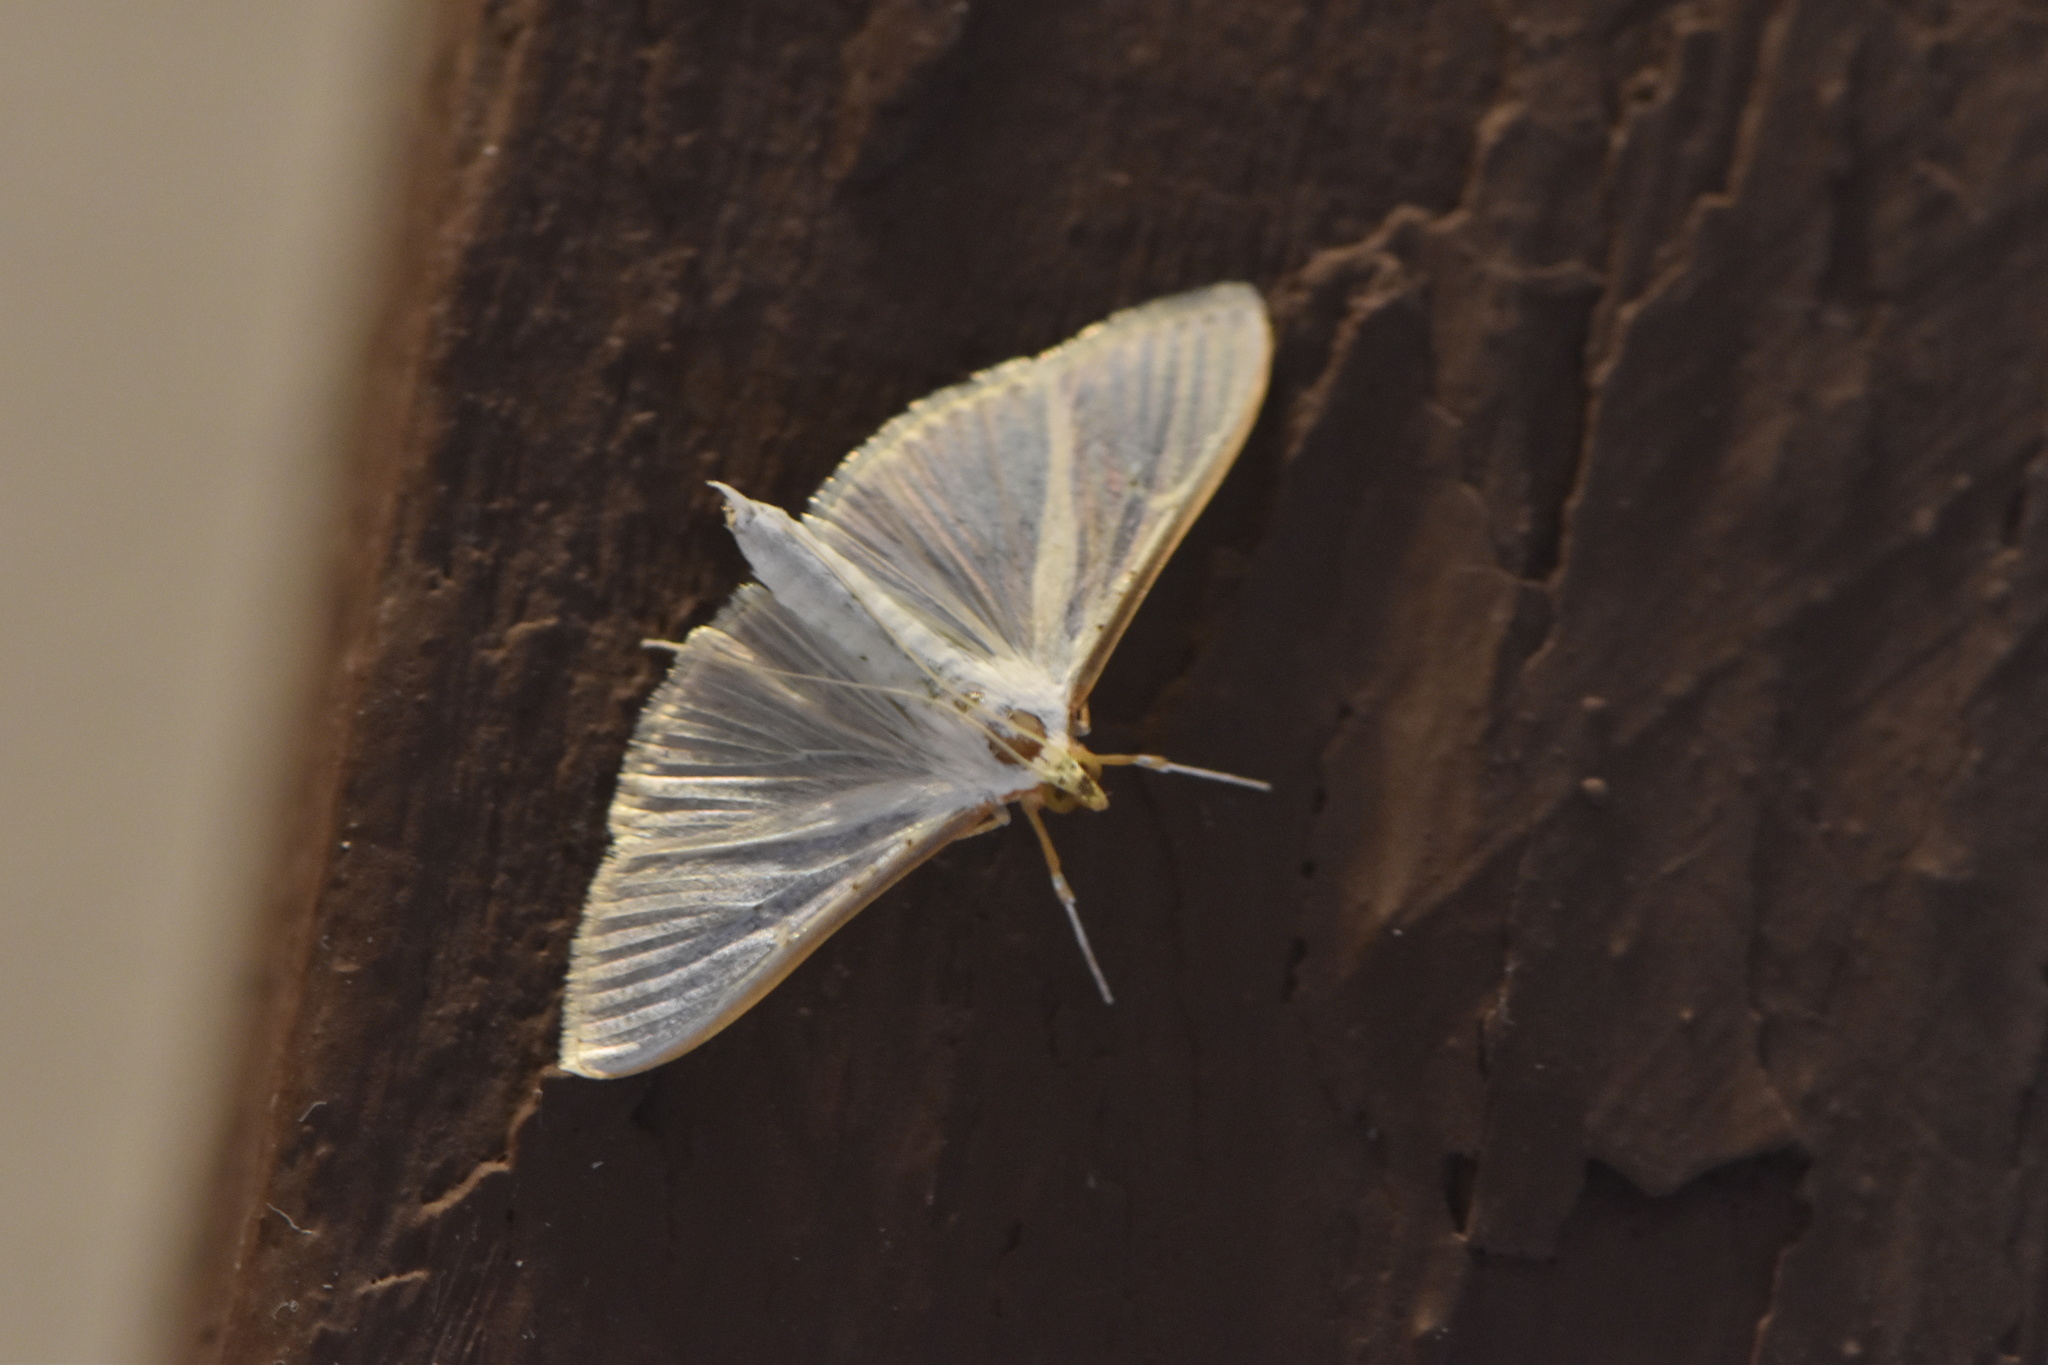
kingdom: Animalia
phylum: Arthropoda
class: Insecta
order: Lepidoptera
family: Crambidae
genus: Palpita
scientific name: Palpita vitrealis
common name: Olive-tree pearl
